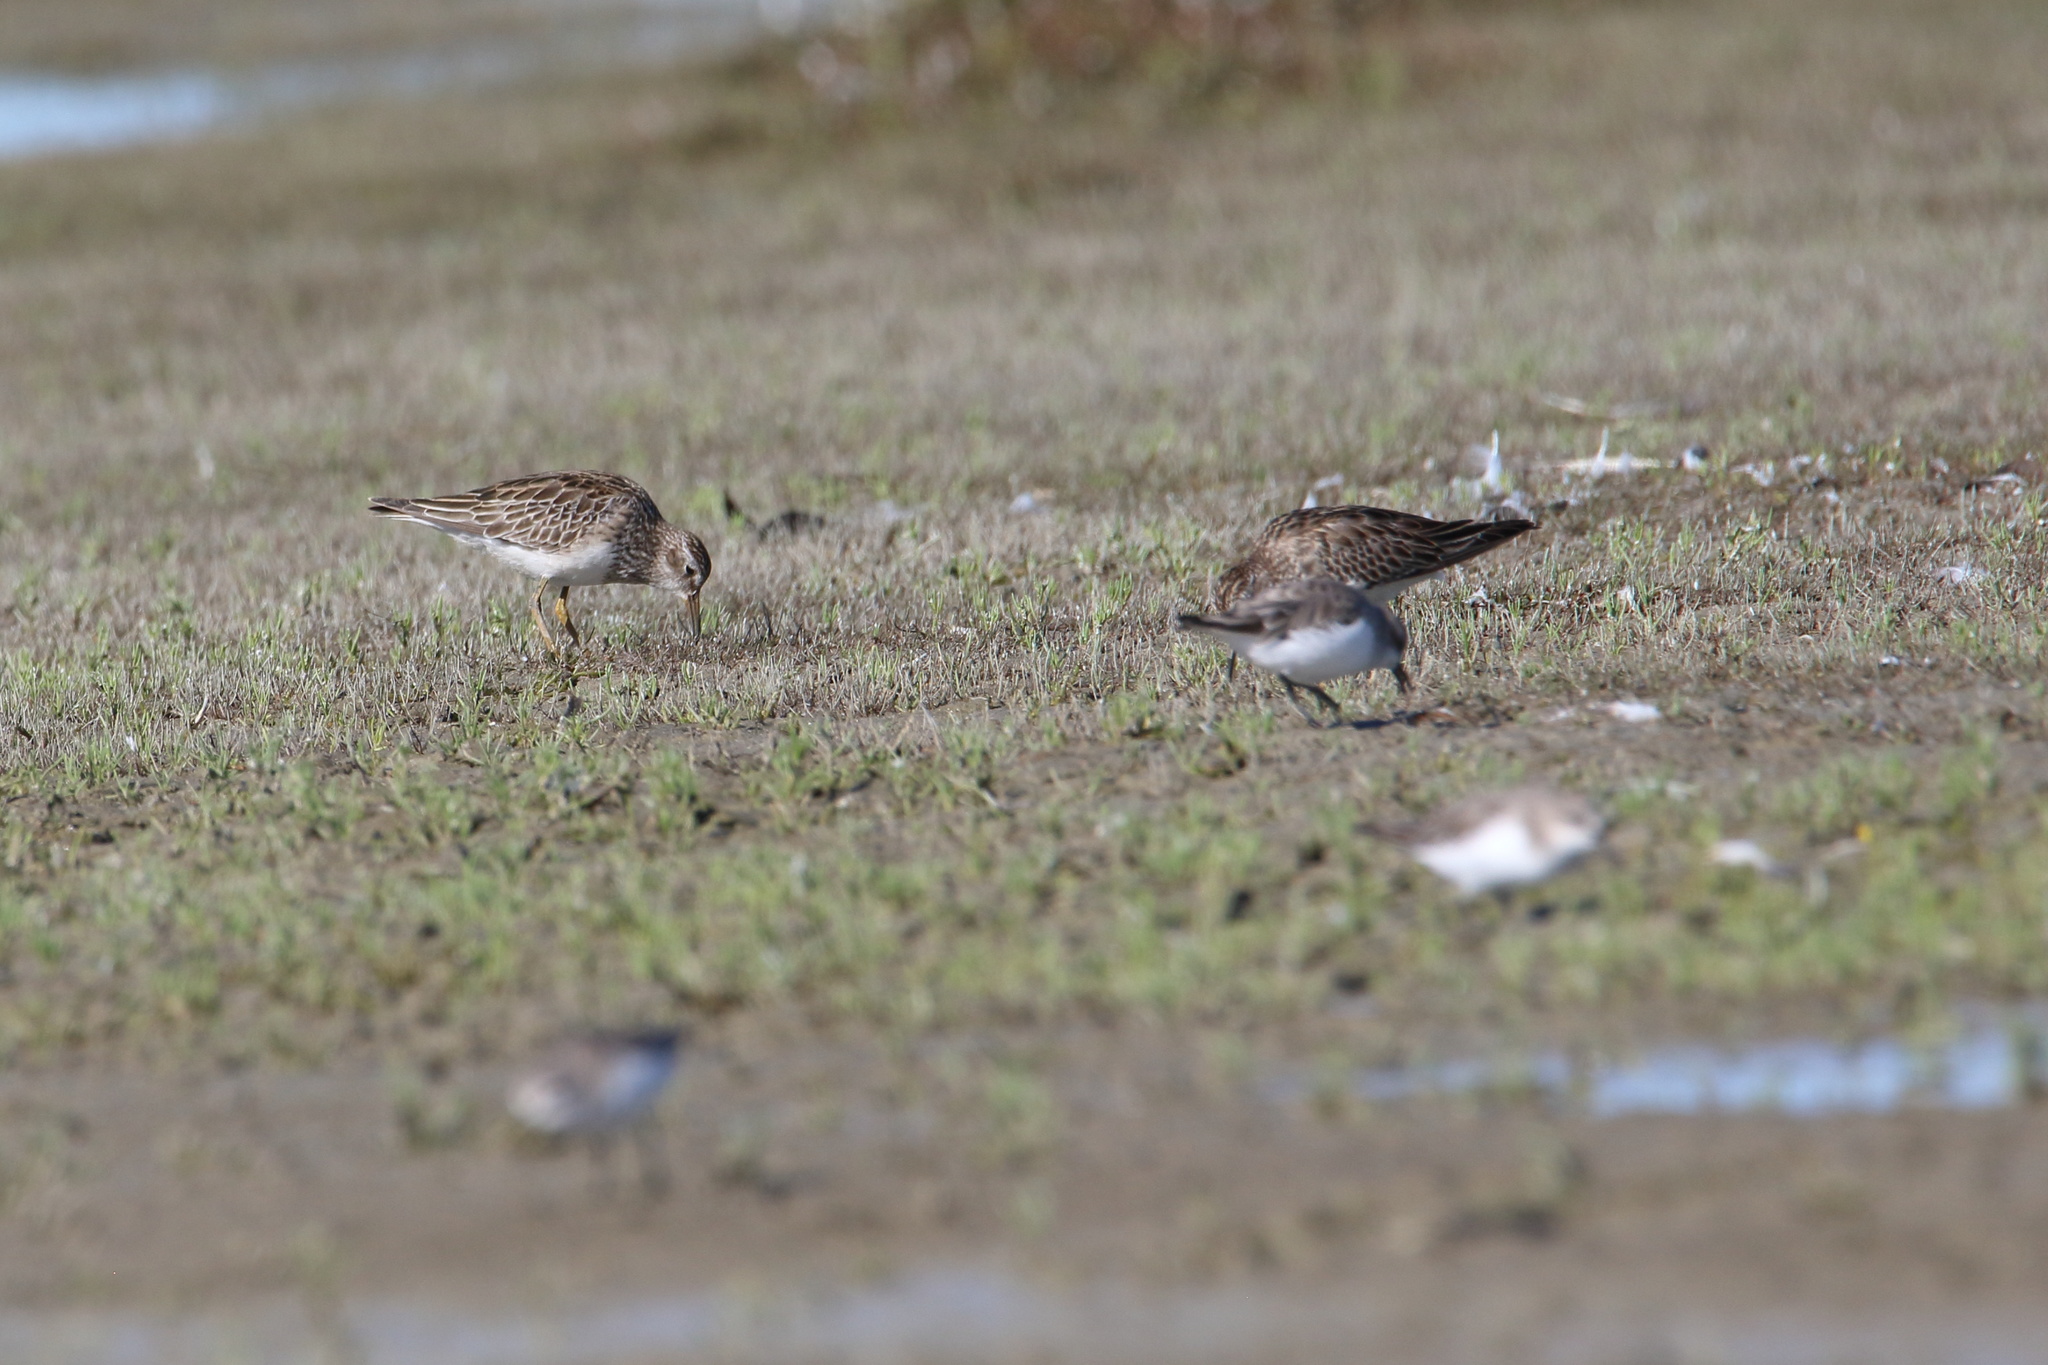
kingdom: Animalia
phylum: Chordata
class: Aves
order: Charadriiformes
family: Scolopacidae
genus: Calidris
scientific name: Calidris melanotos
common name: Pectoral sandpiper
